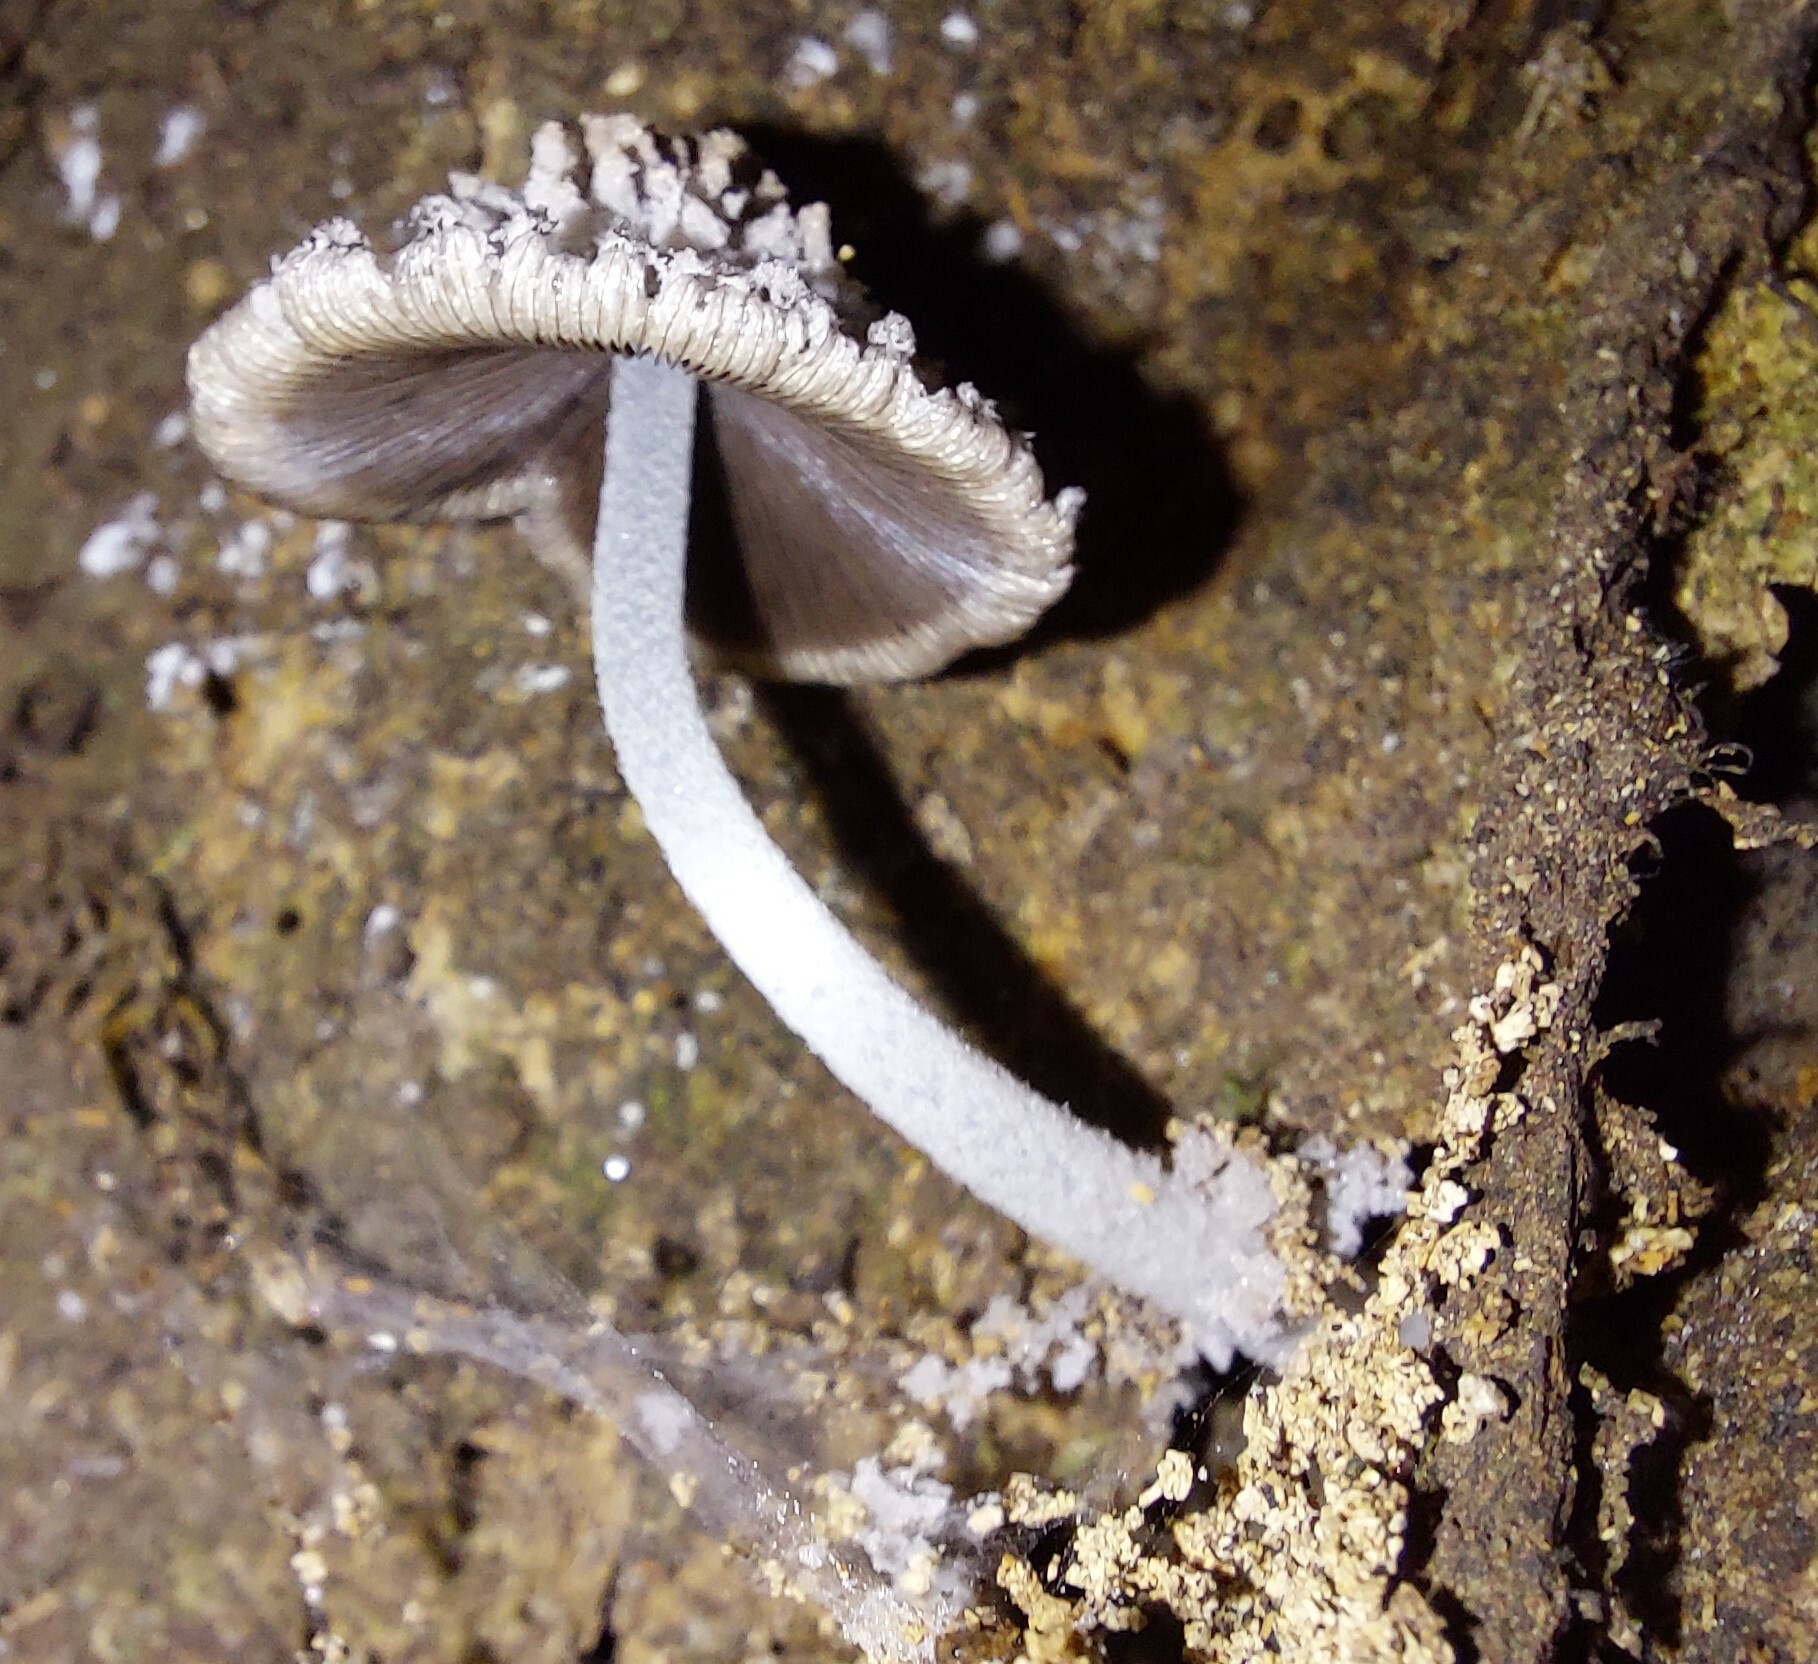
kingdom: Fungi
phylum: Basidiomycota
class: Agaricomycetes
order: Agaricales
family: Psathyrellaceae
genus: Coprinopsis
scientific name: Coprinopsis laanii
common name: Dotty inkcap
